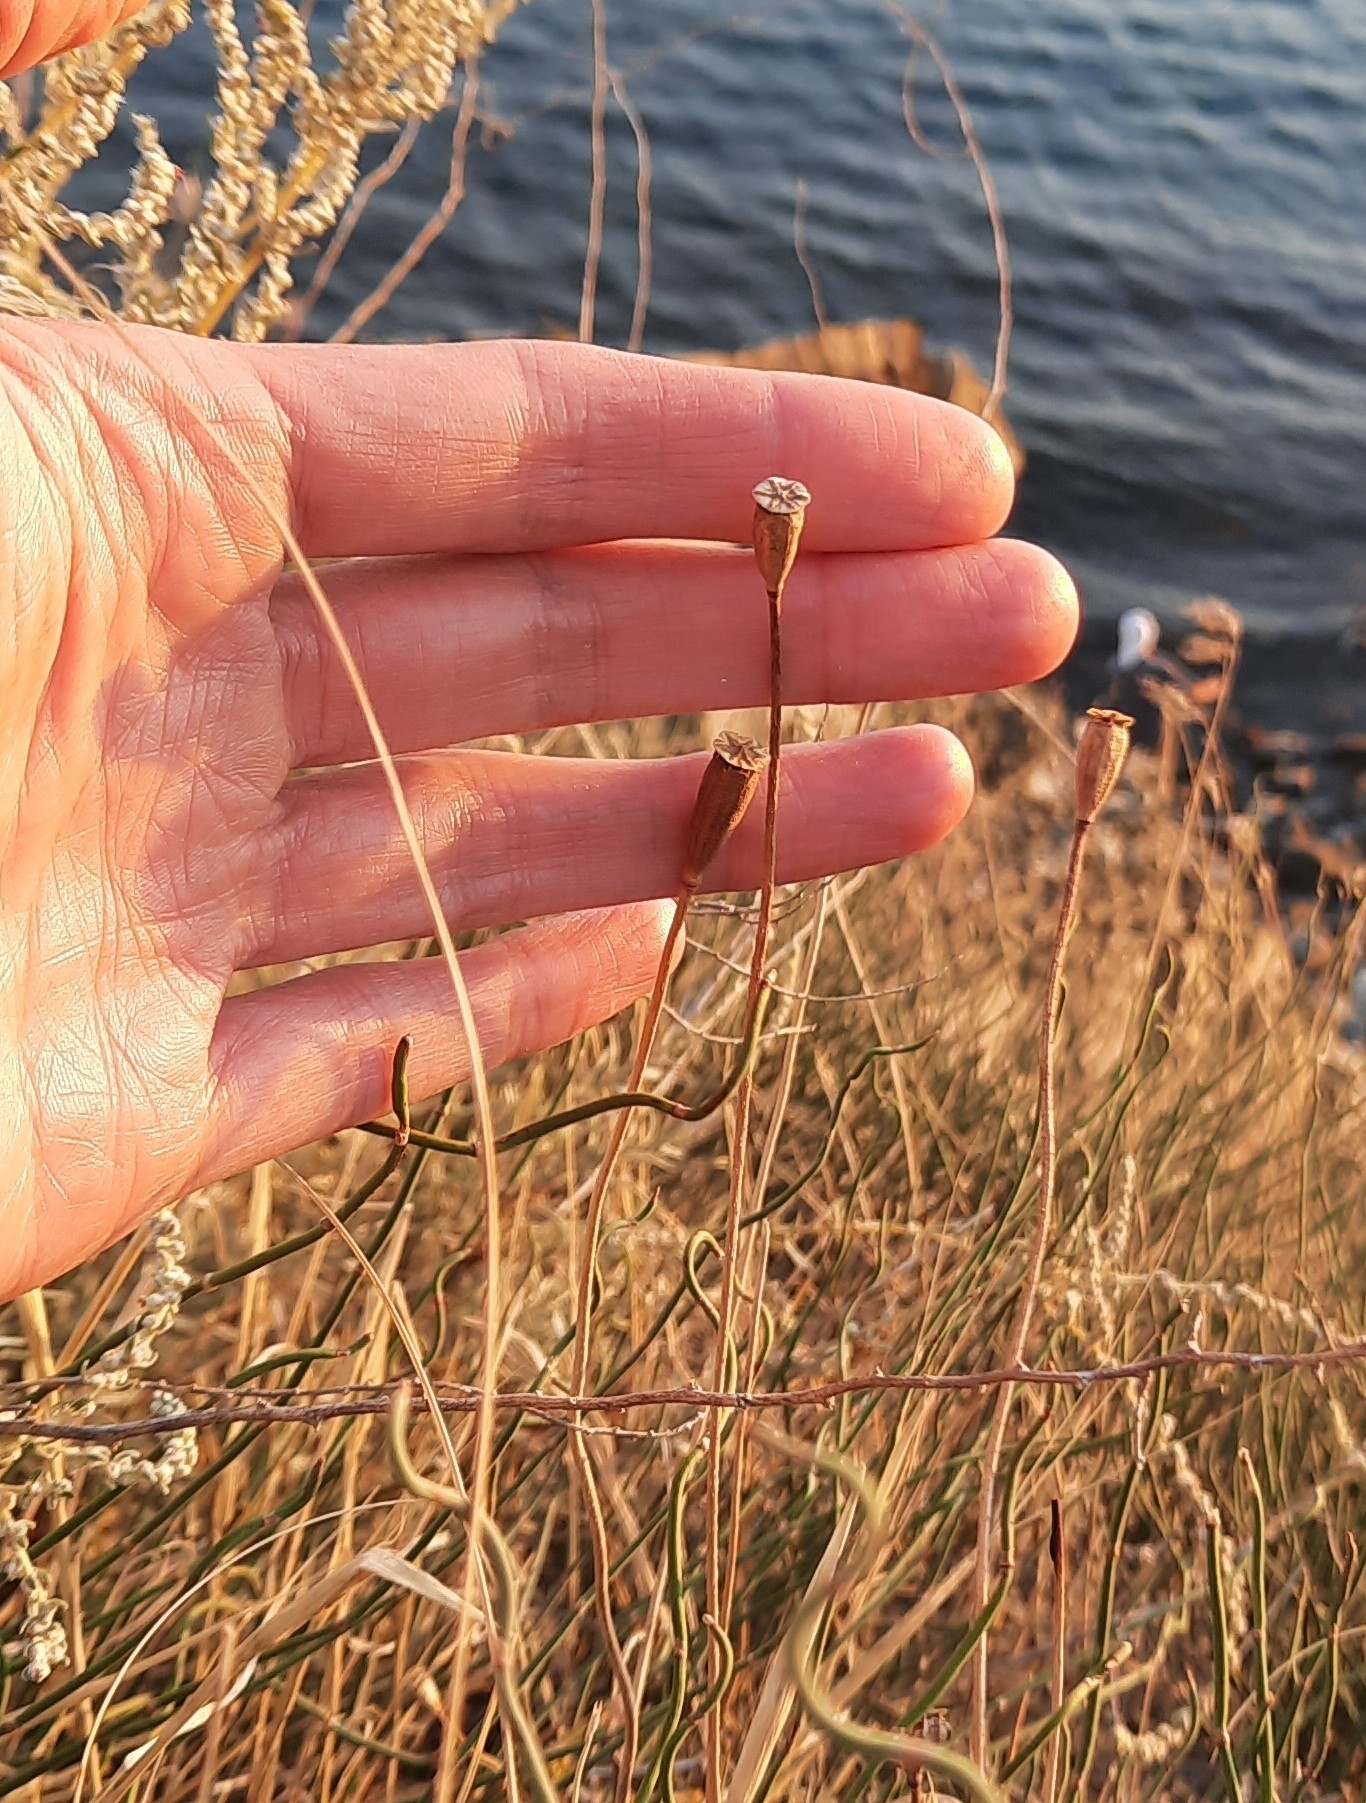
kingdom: Plantae
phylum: Tracheophyta
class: Magnoliopsida
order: Ranunculales
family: Papaveraceae
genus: Papaver
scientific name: Papaver dubium
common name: Long-headed poppy
